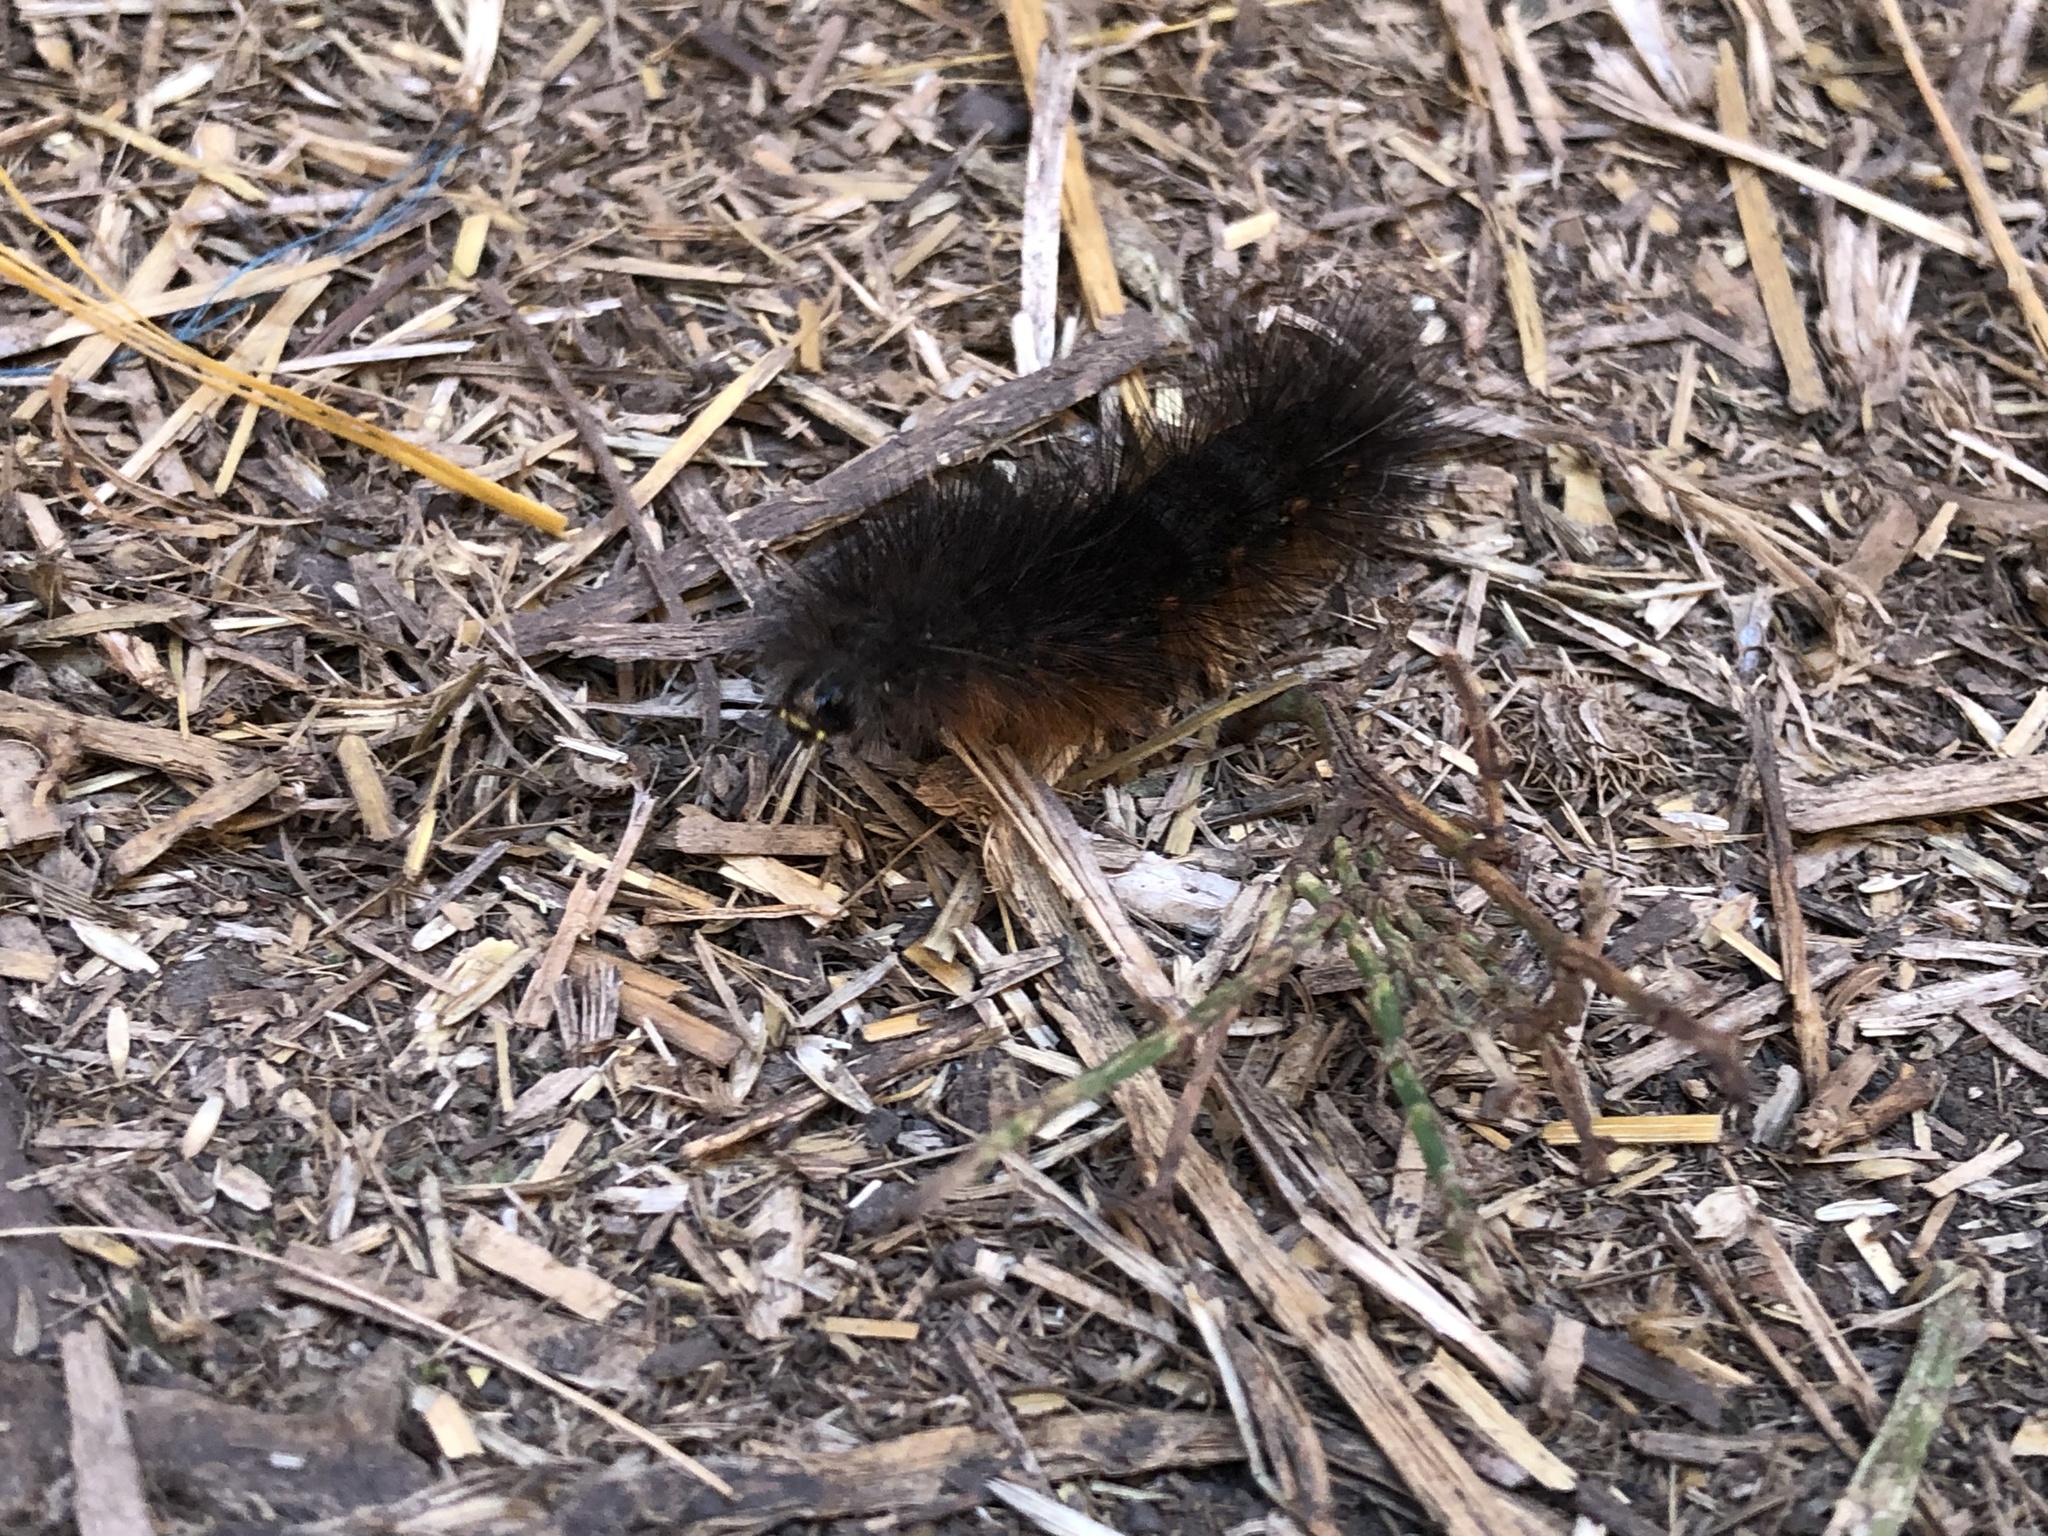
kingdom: Animalia
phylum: Arthropoda
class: Insecta
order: Lepidoptera
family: Erebidae
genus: Estigmene
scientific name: Estigmene acrea
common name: Salt marsh moth
